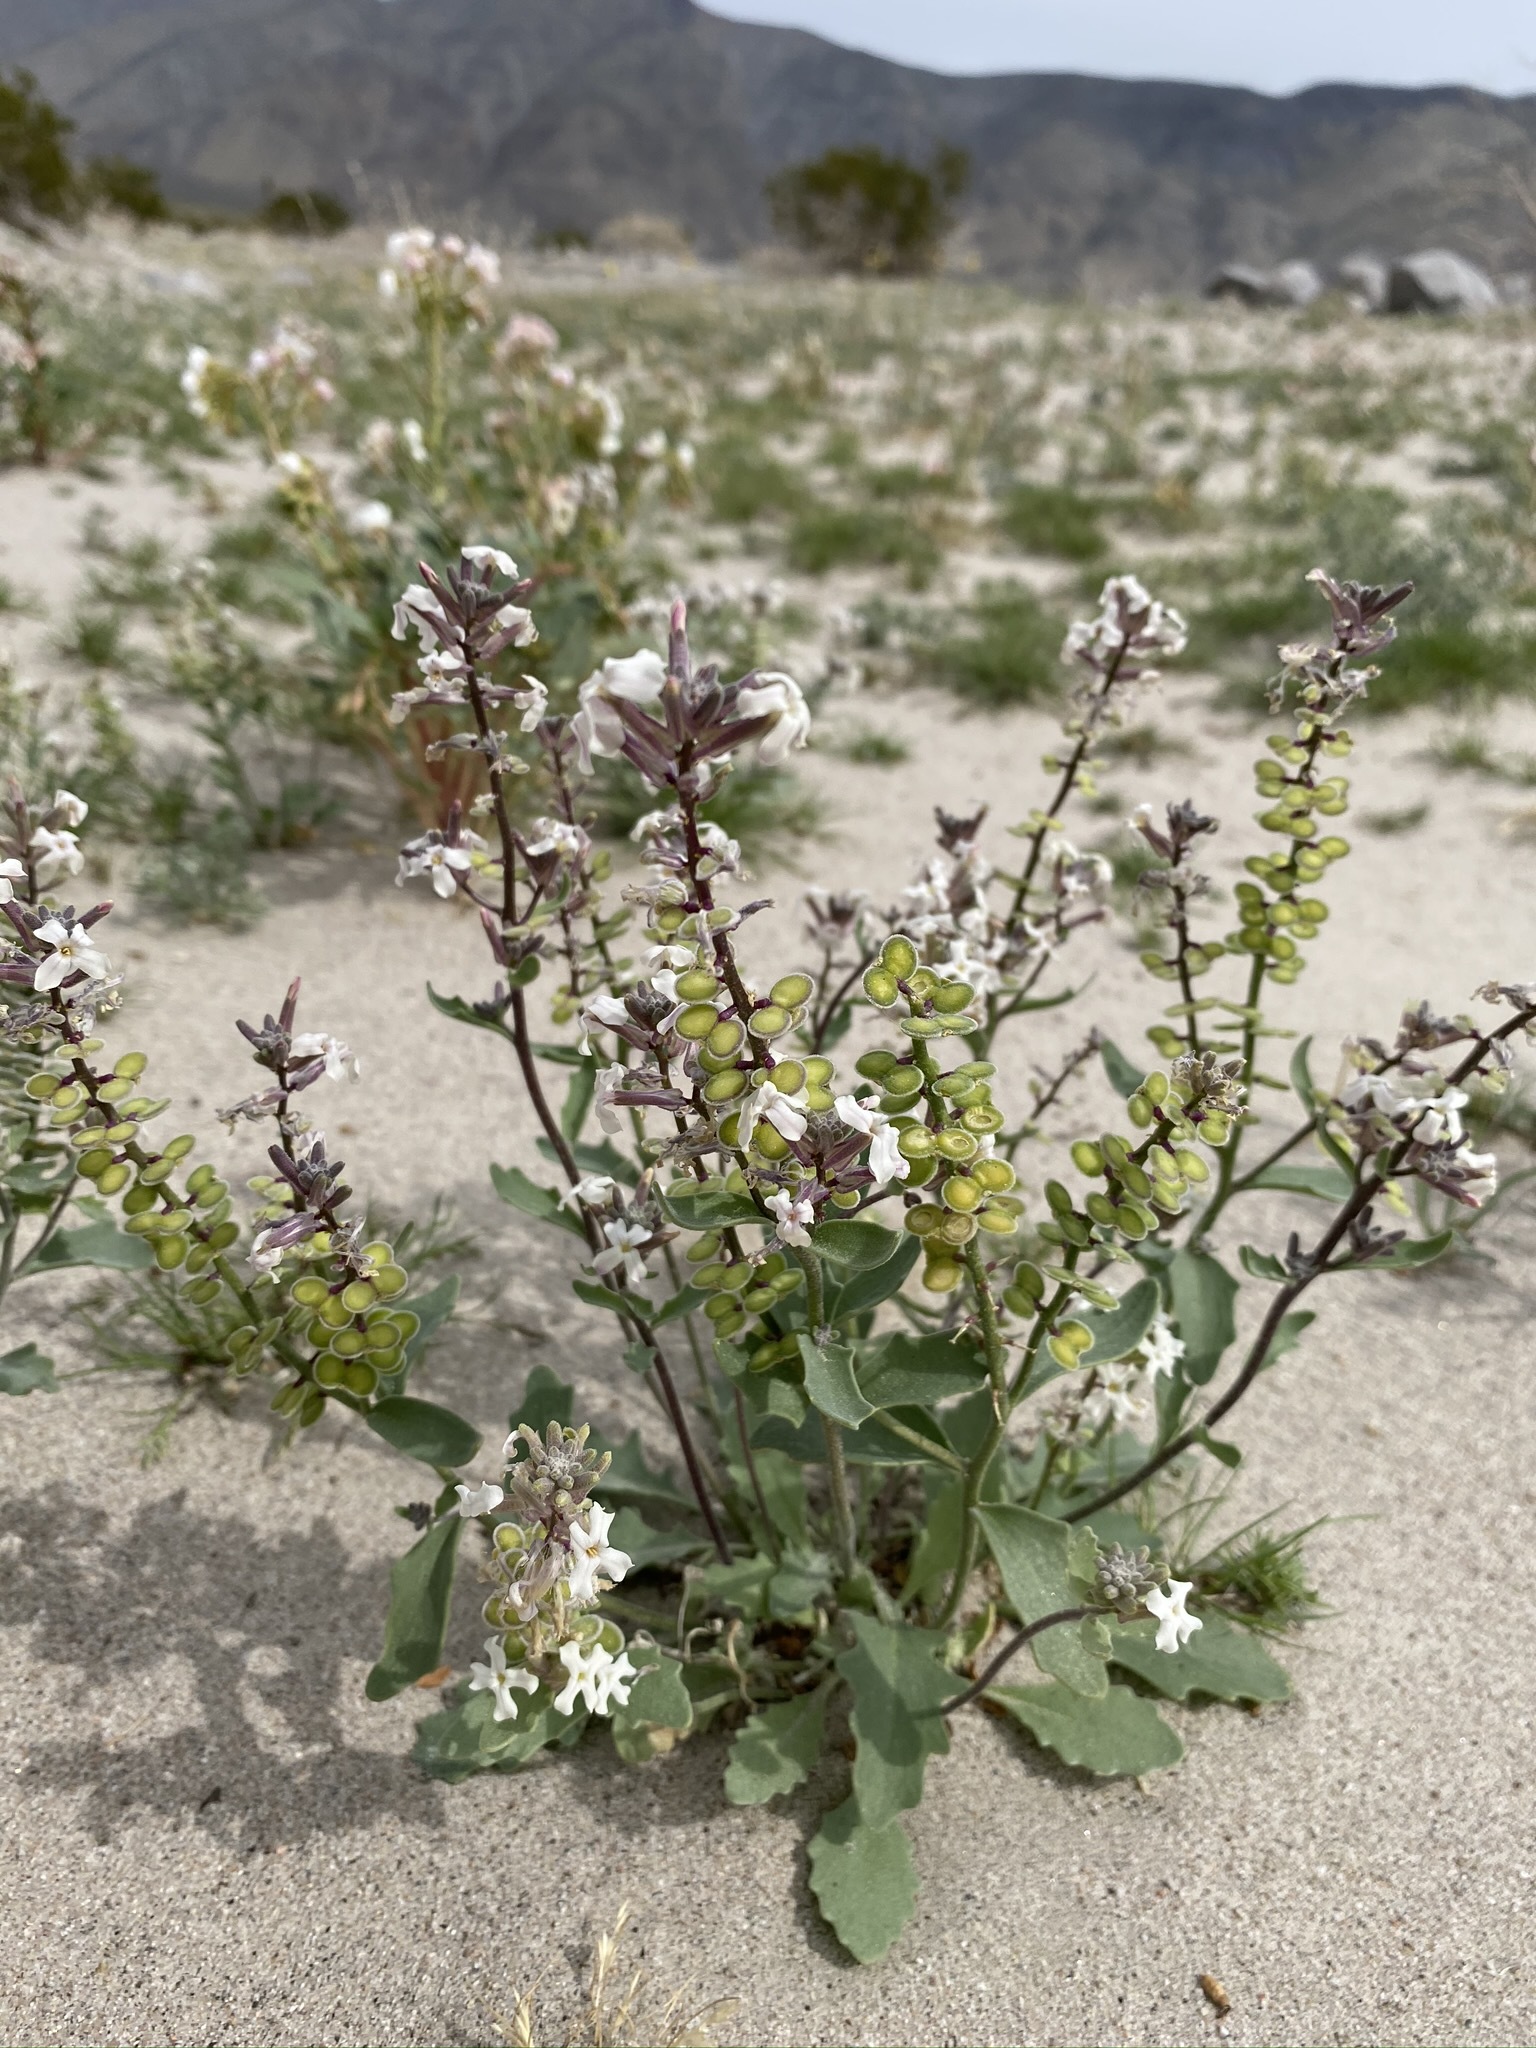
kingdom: Plantae
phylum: Tracheophyta
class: Magnoliopsida
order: Brassicales
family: Brassicaceae
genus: Dithyrea
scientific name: Dithyrea californica
